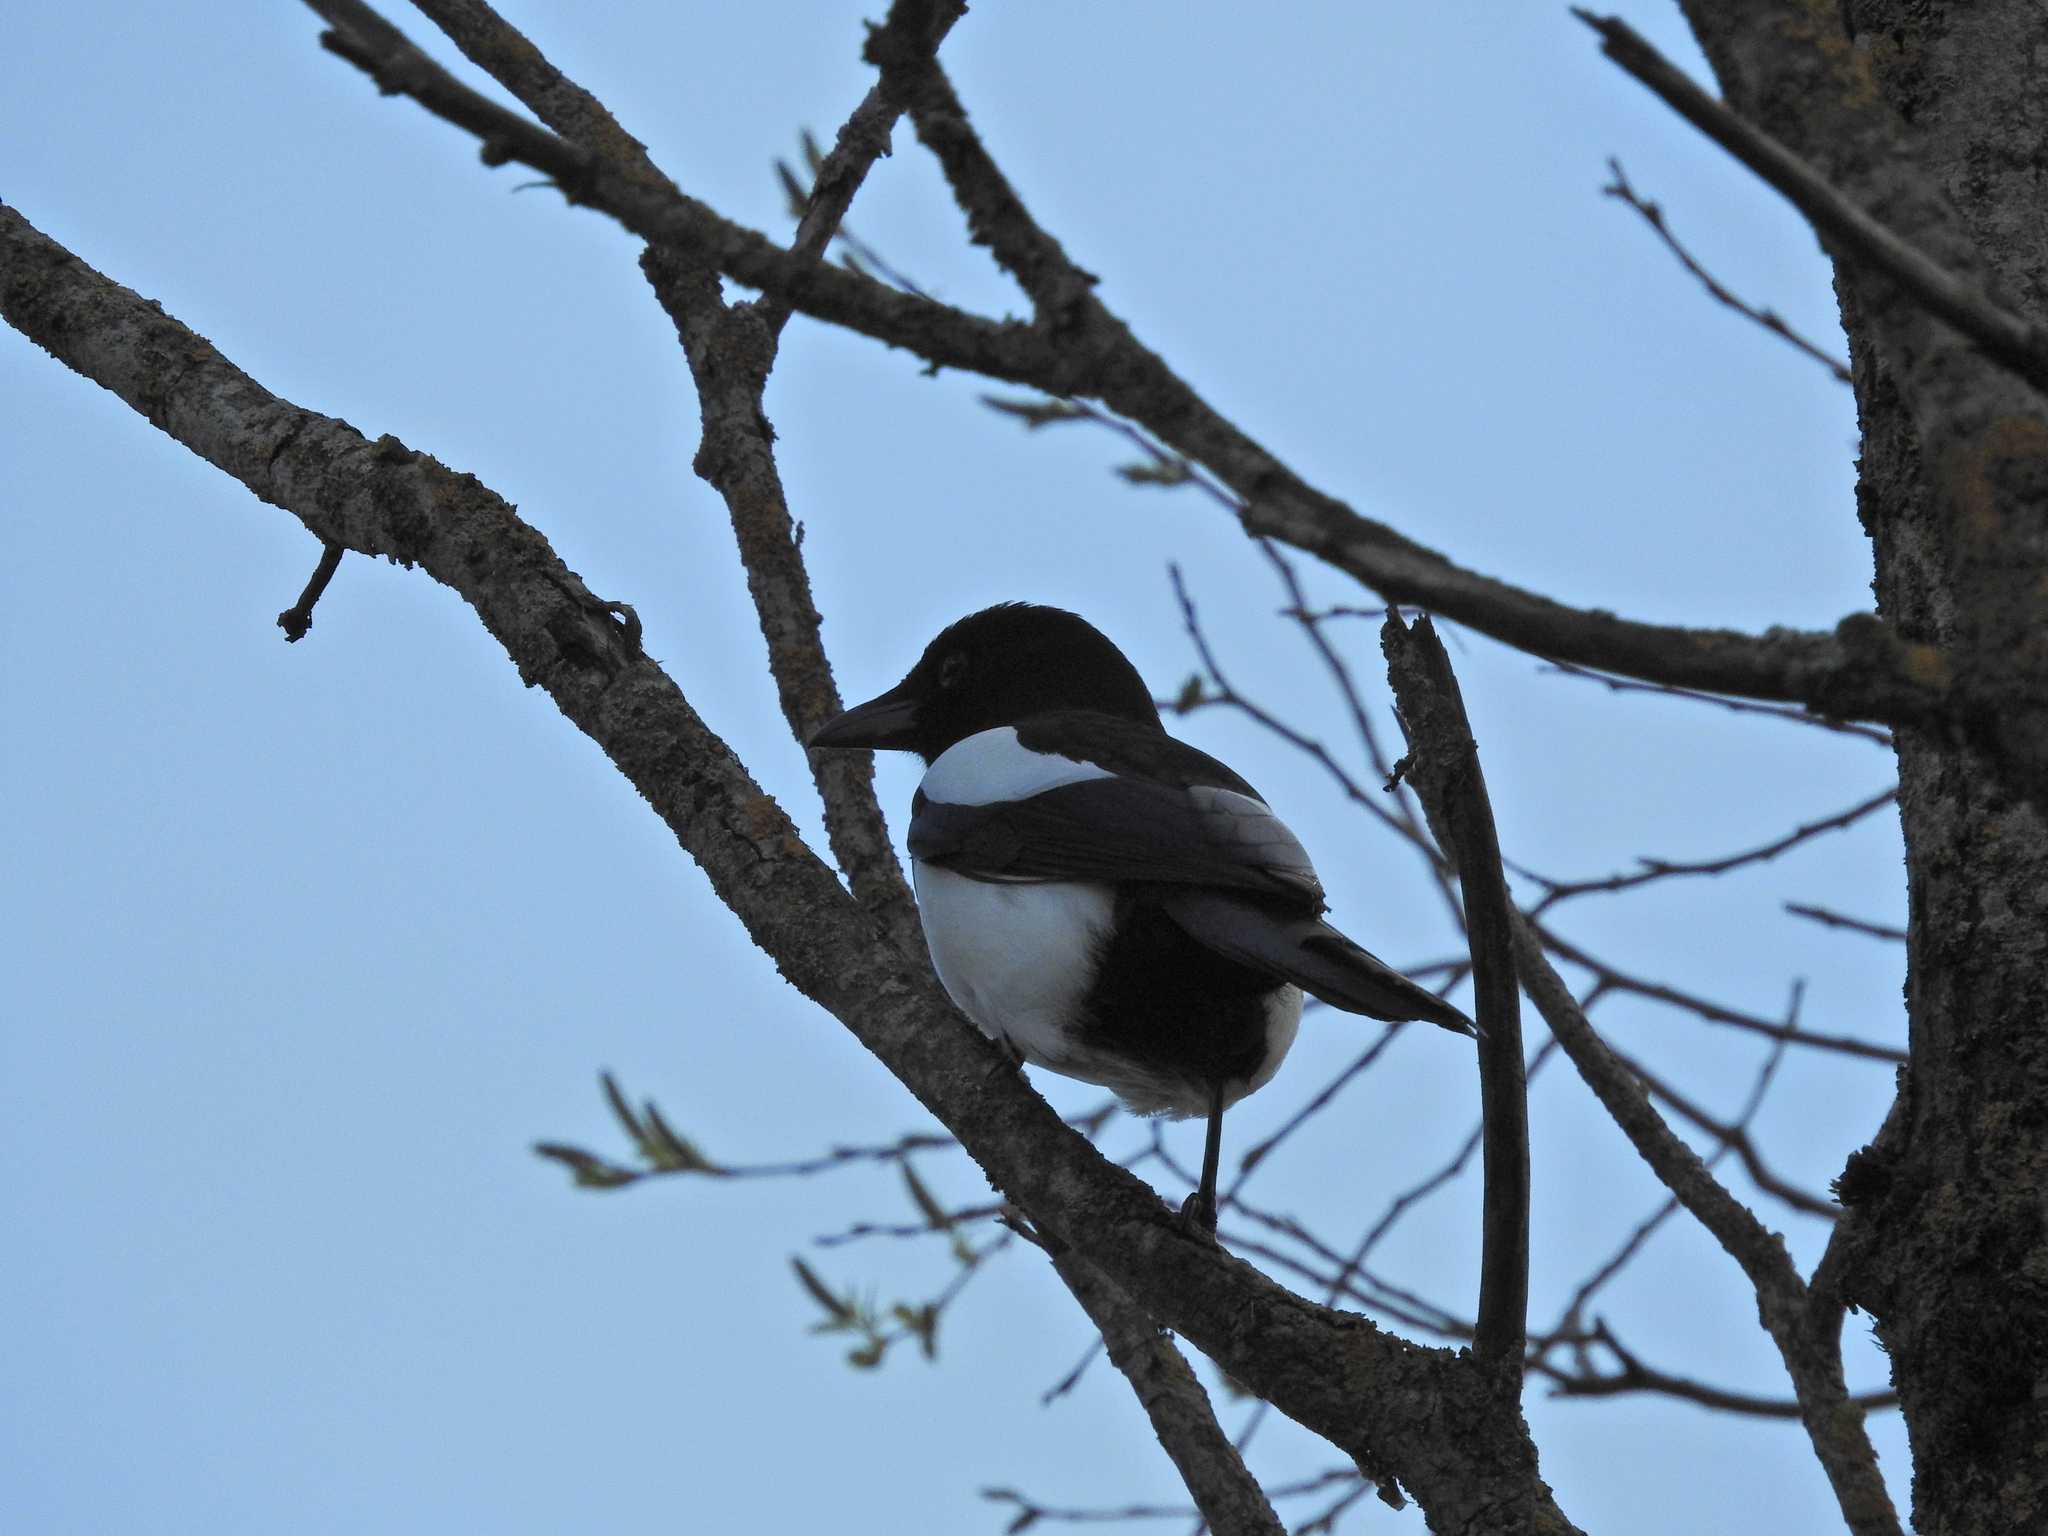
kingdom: Animalia
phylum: Chordata
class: Aves
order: Passeriformes
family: Corvidae
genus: Pica
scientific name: Pica pica
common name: Eurasian magpie
